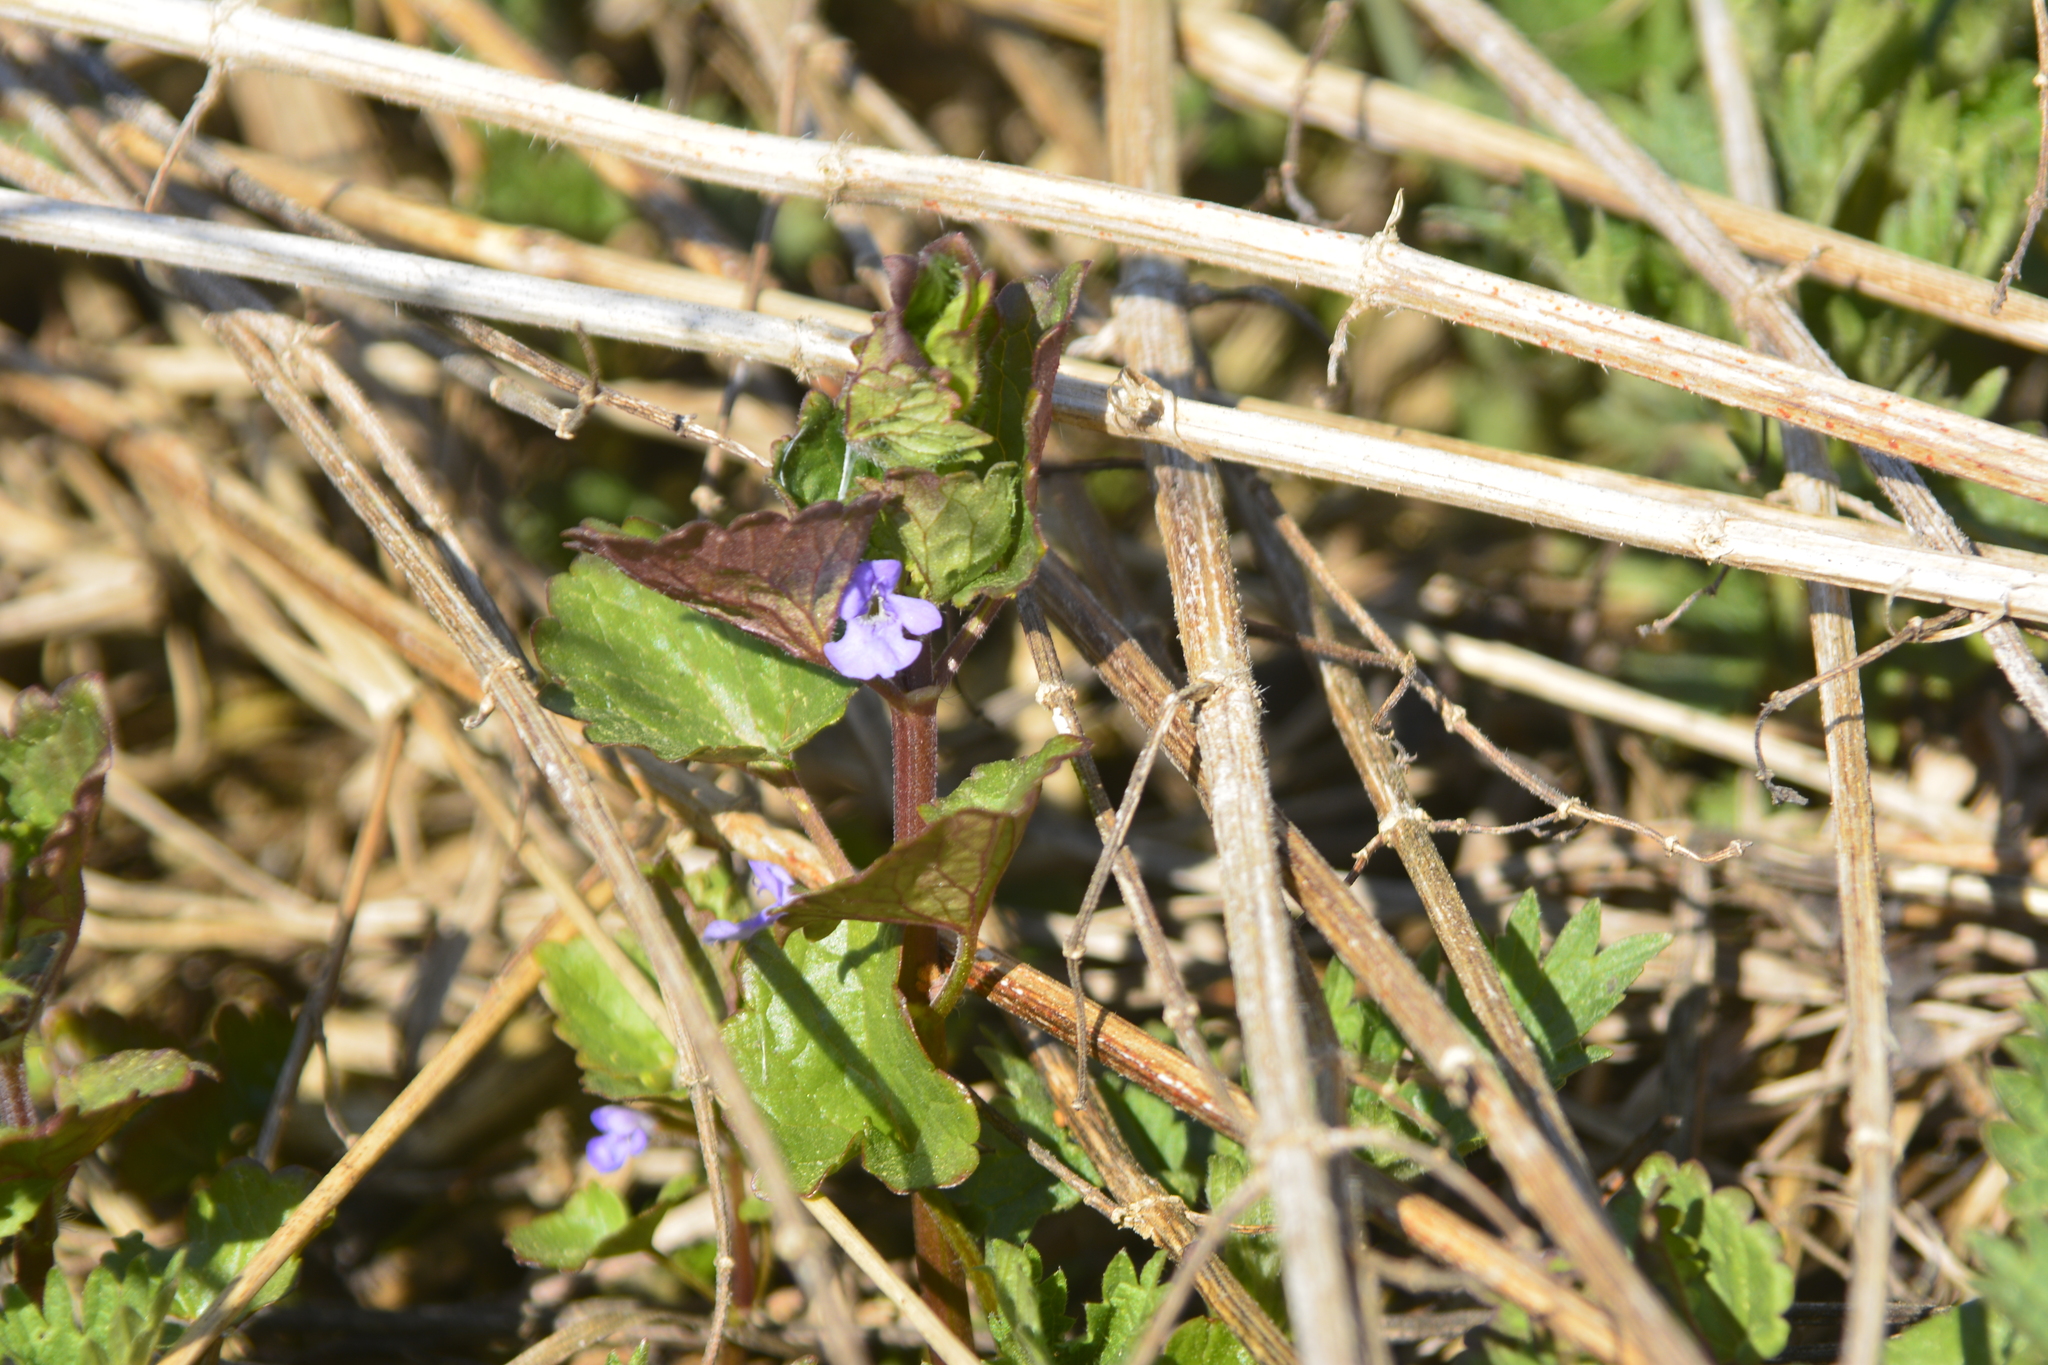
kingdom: Plantae
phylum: Tracheophyta
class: Magnoliopsida
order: Lamiales
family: Lamiaceae
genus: Glechoma
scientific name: Glechoma hederacea
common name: Ground ivy
